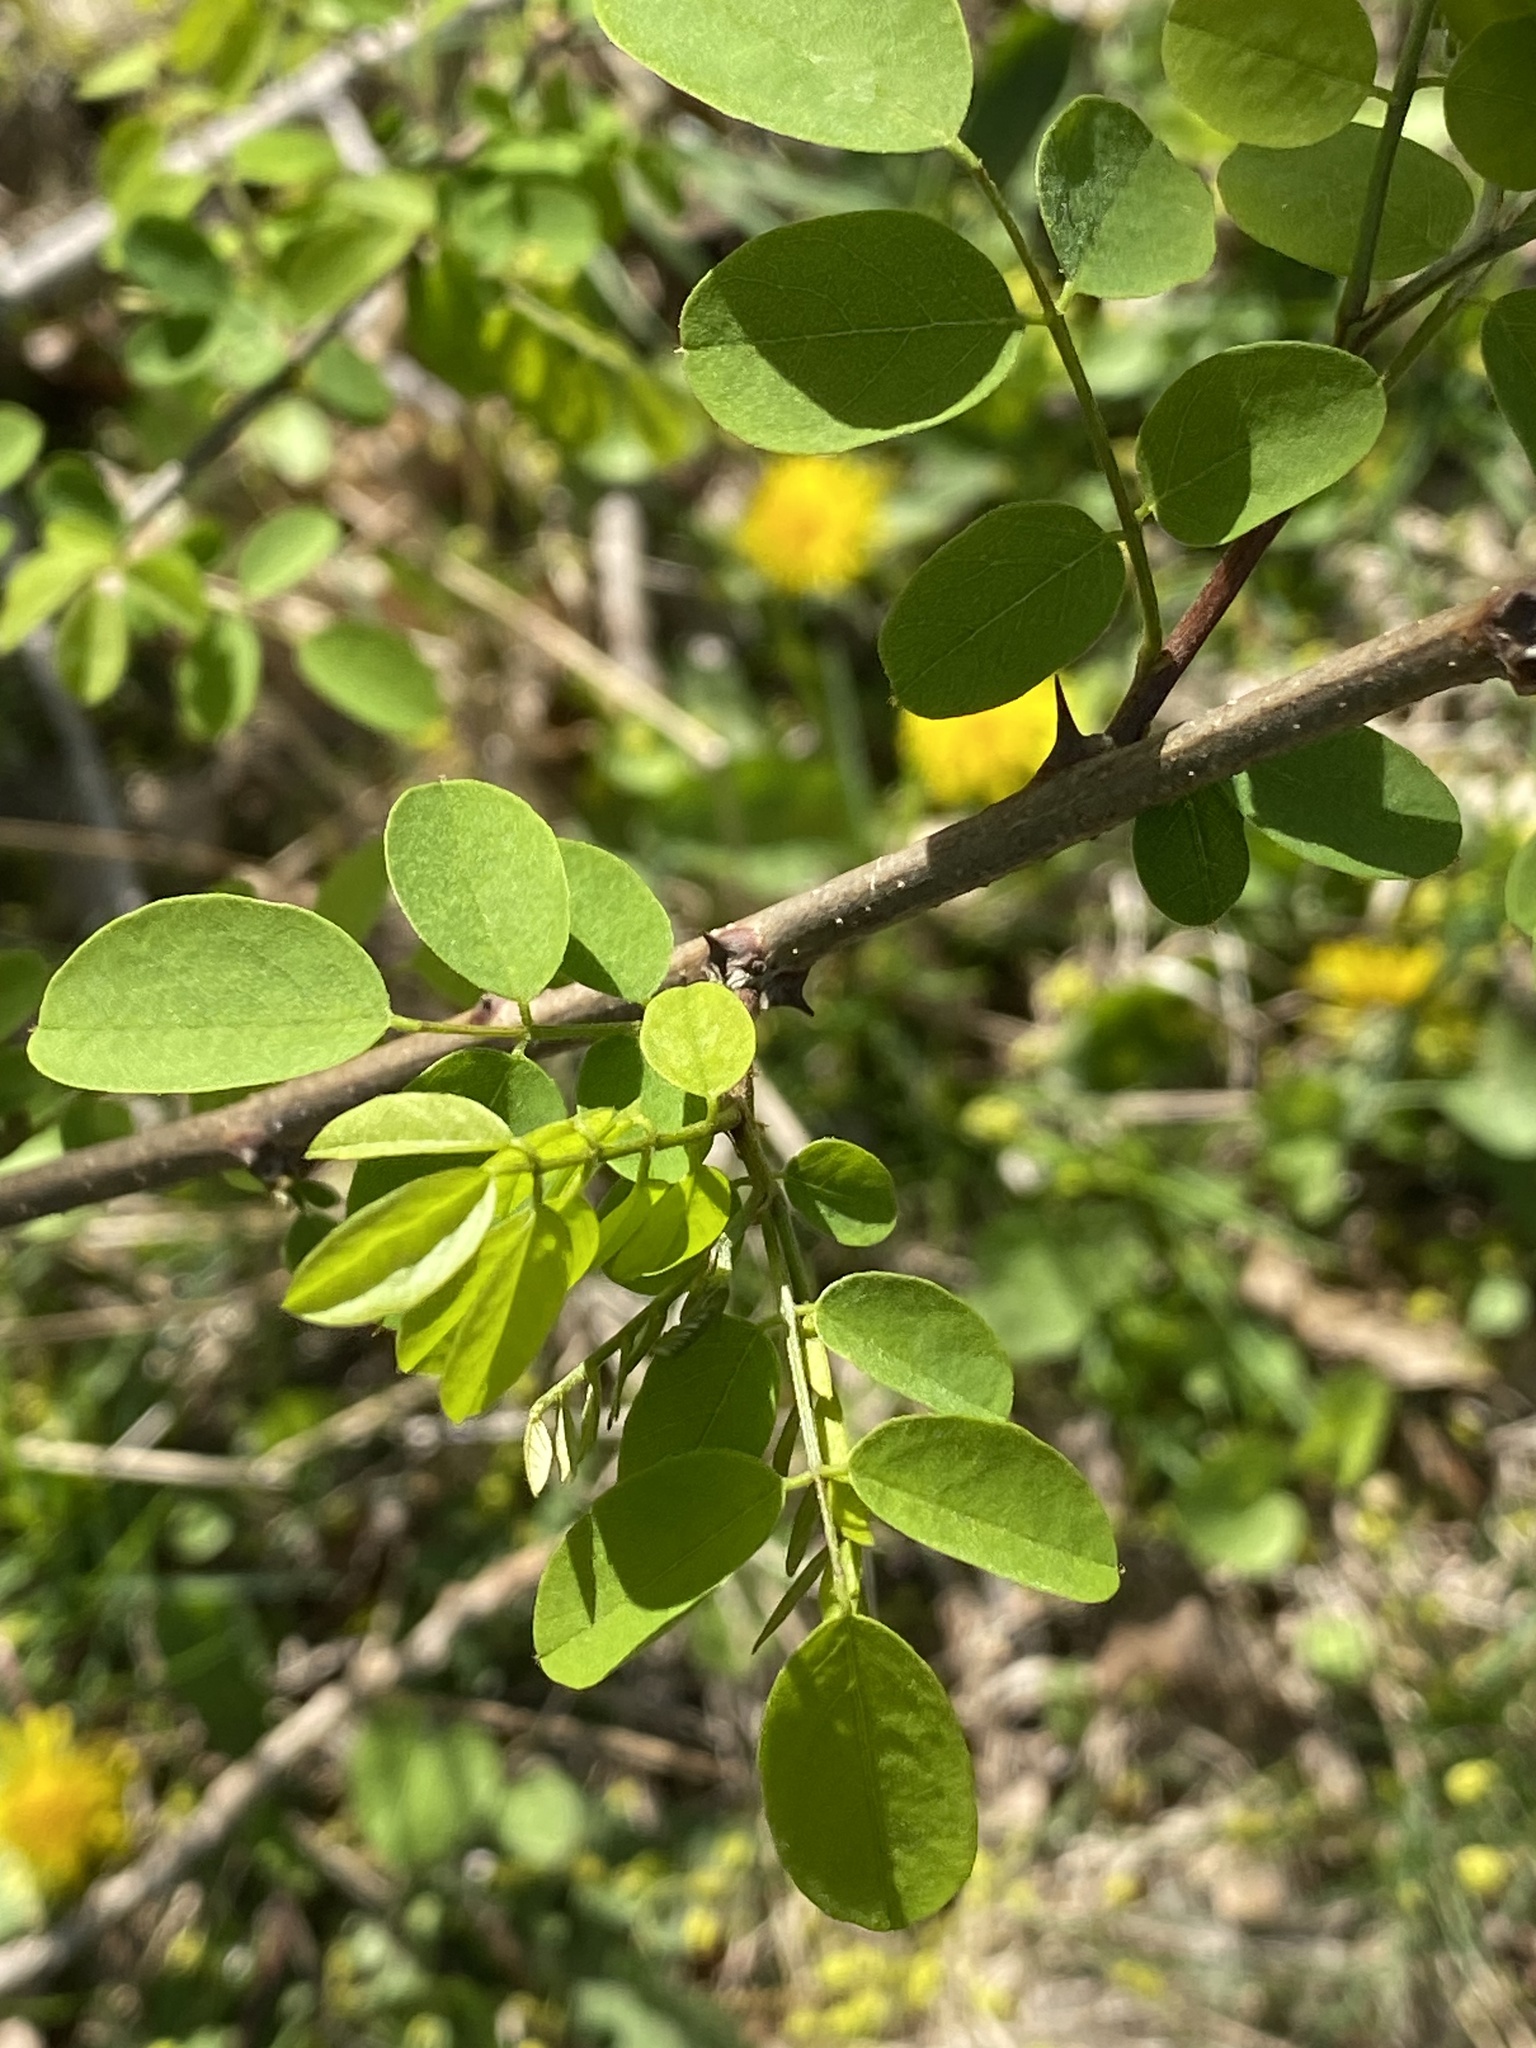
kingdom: Plantae
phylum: Tracheophyta
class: Magnoliopsida
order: Fabales
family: Fabaceae
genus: Robinia
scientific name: Robinia pseudoacacia
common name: Black locust
